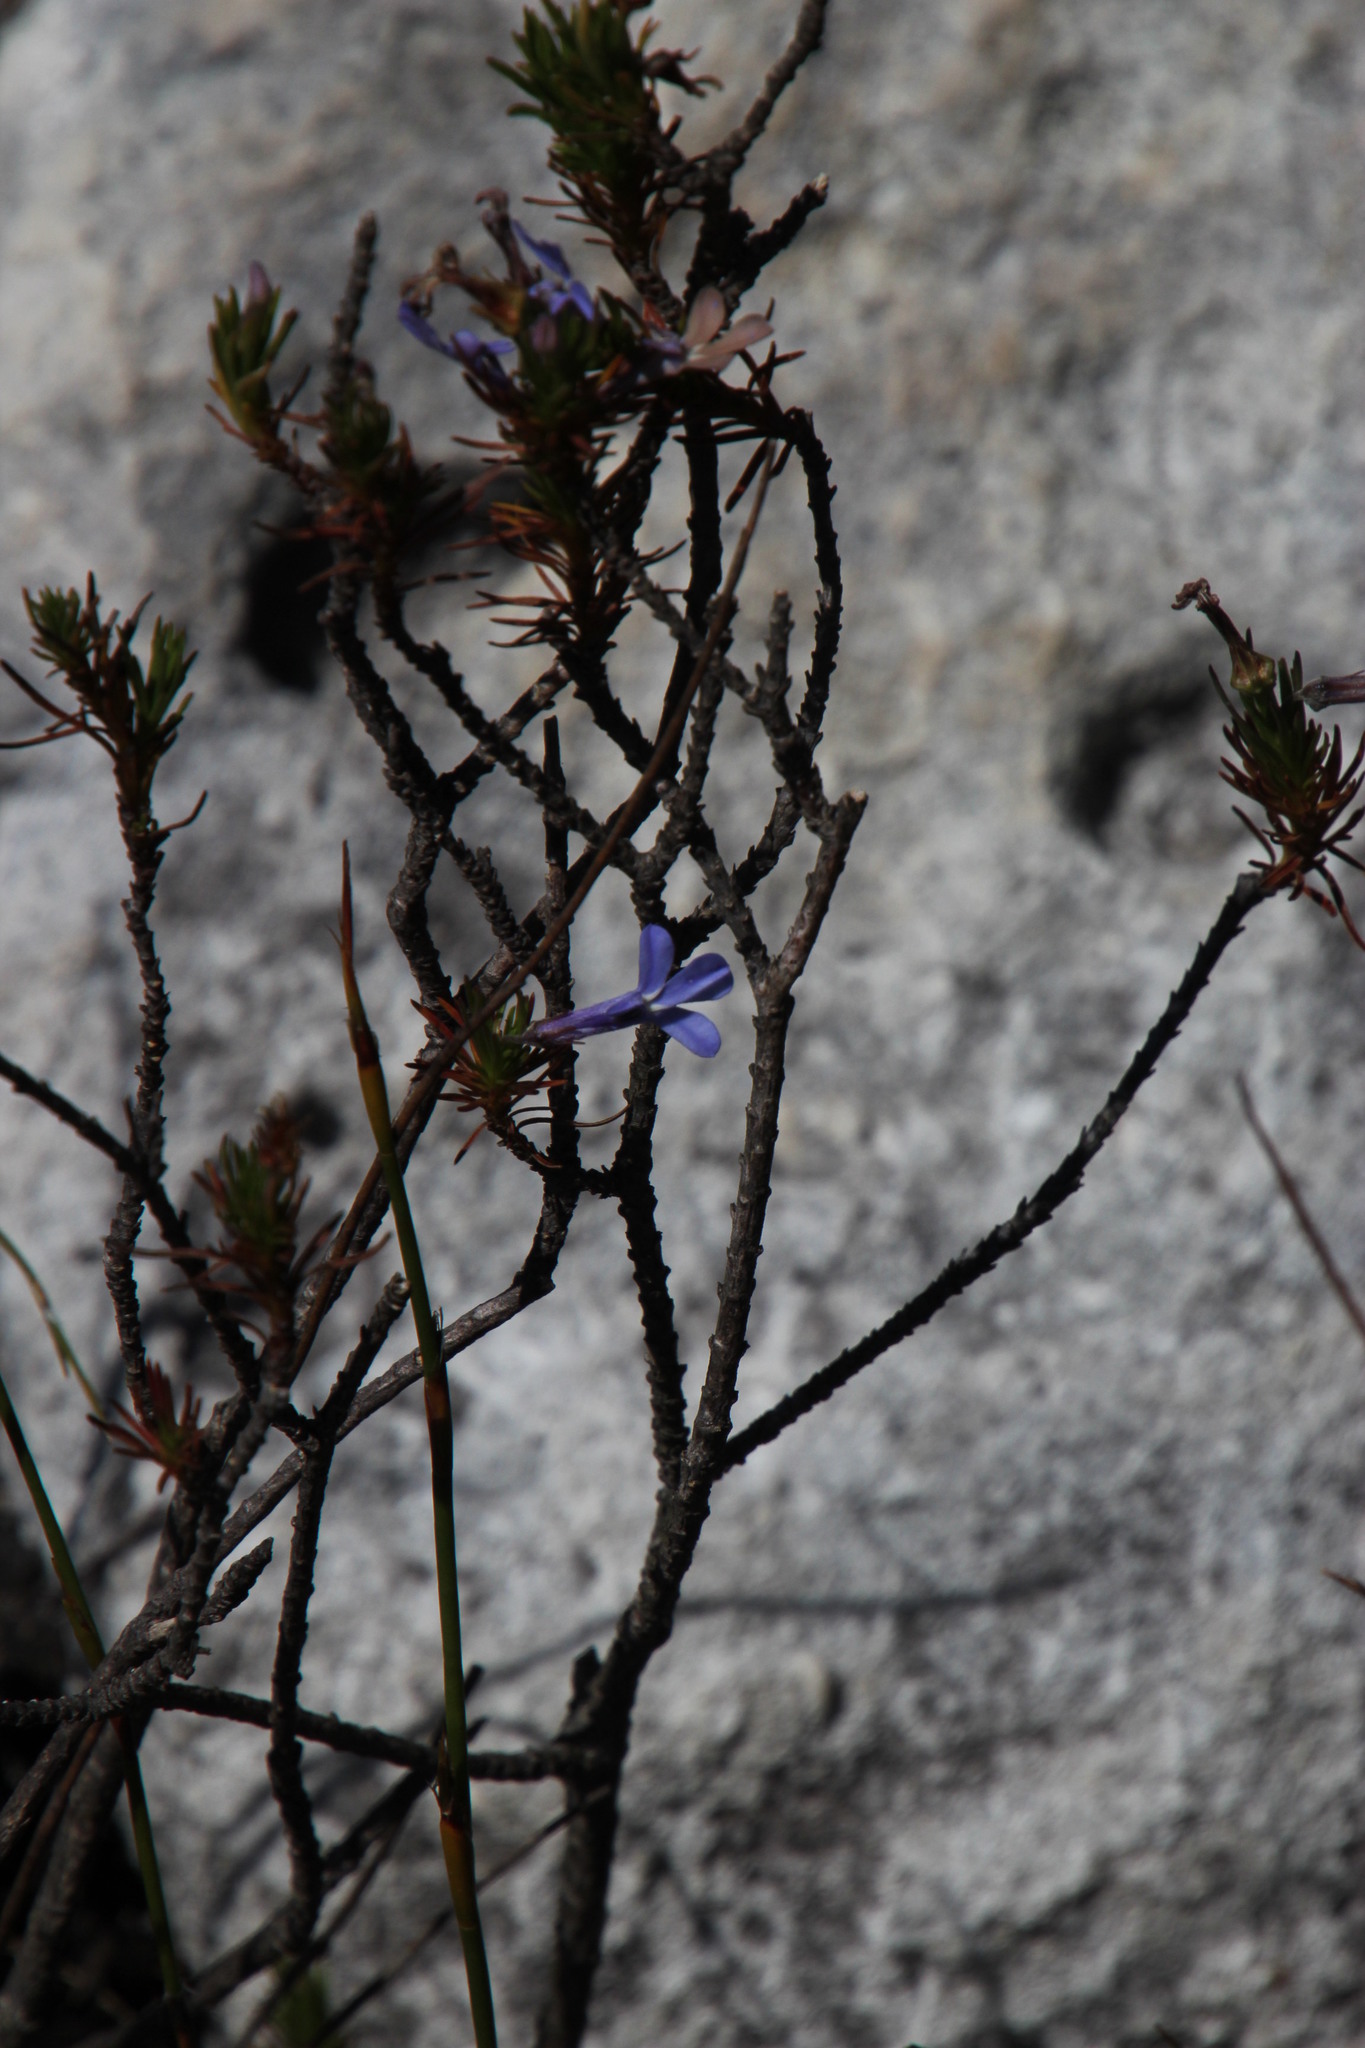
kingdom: Plantae
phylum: Tracheophyta
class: Magnoliopsida
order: Asterales
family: Campanulaceae
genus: Lobelia
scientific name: Lobelia pinifolia
